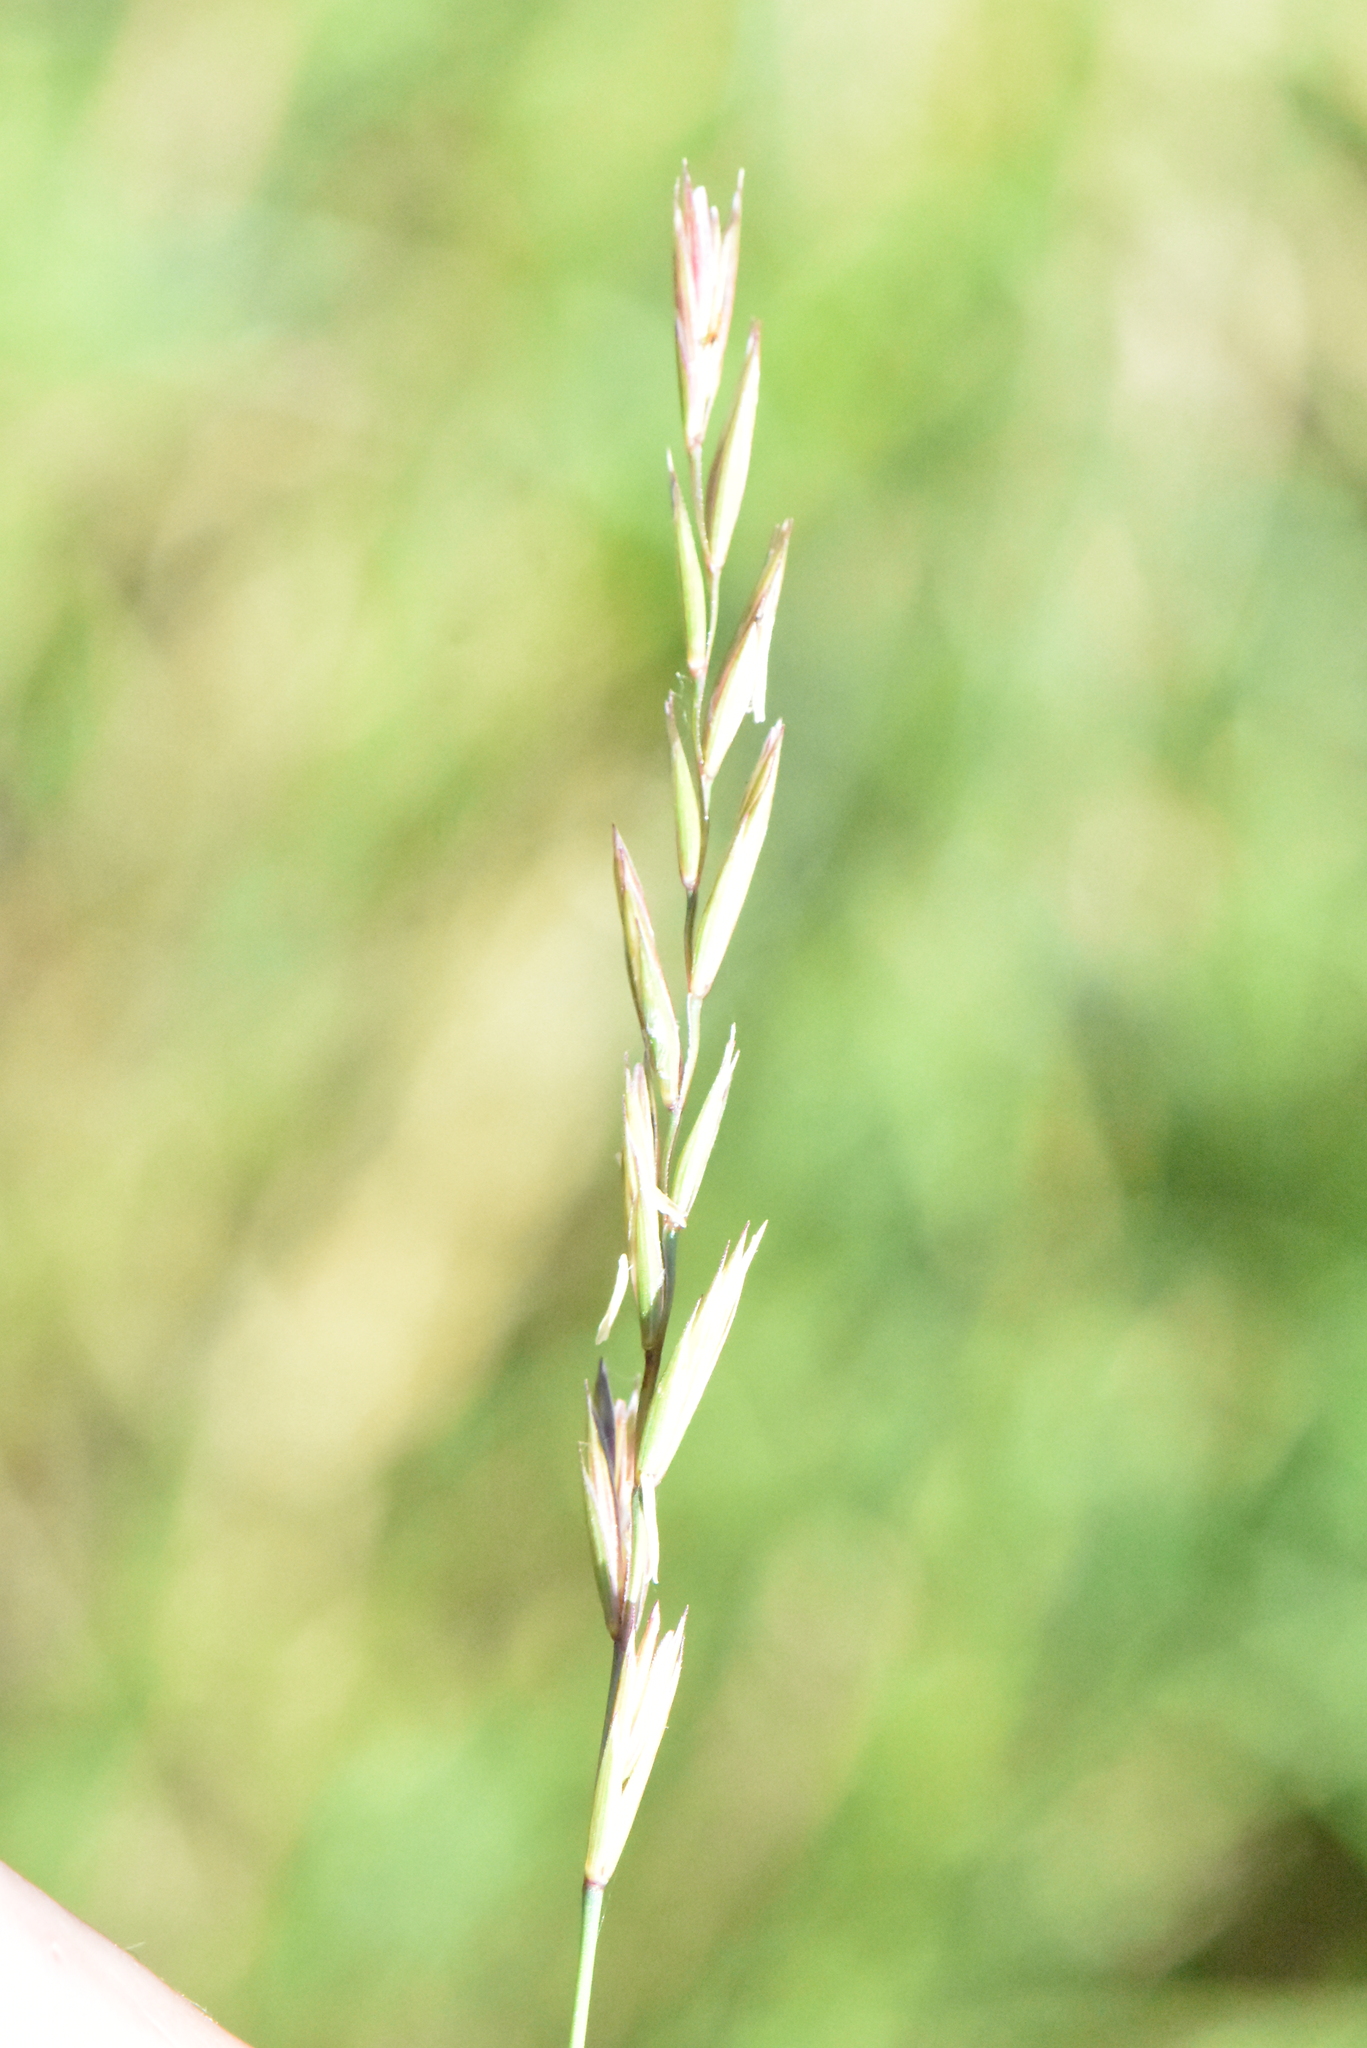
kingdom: Plantae
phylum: Tracheophyta
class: Liliopsida
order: Poales
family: Poaceae
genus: Elymus
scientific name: Elymus repens
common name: Quackgrass
